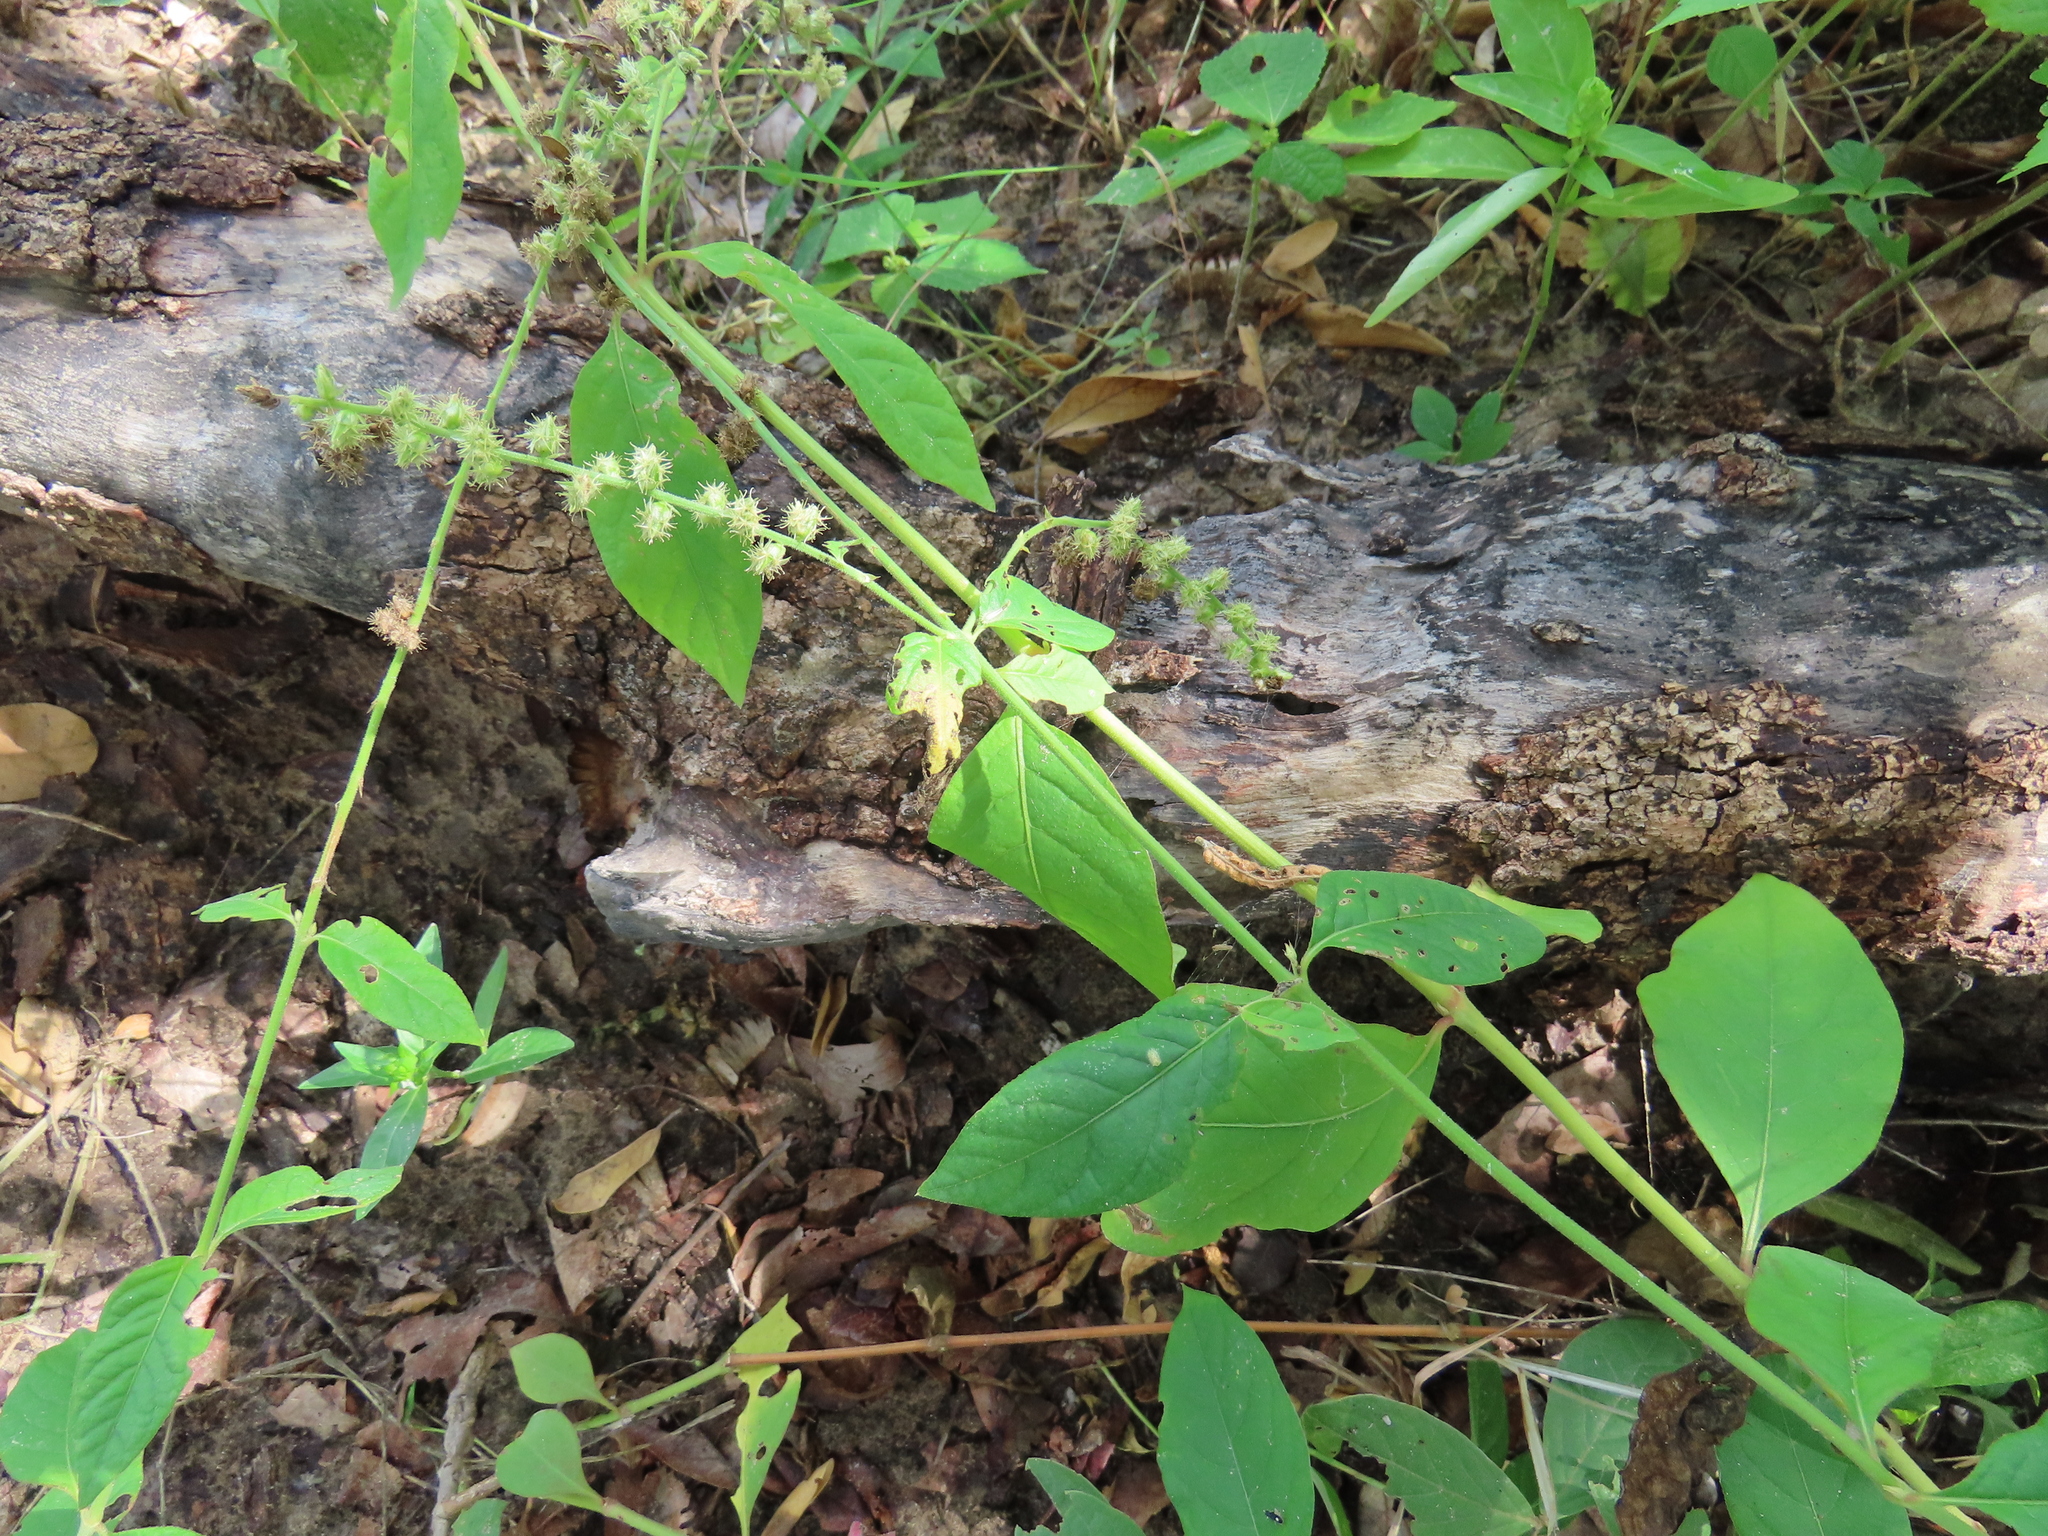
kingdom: Plantae
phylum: Tracheophyta
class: Magnoliopsida
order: Caryophyllales
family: Amaranthaceae
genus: Pupalia
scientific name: Pupalia lappacea
